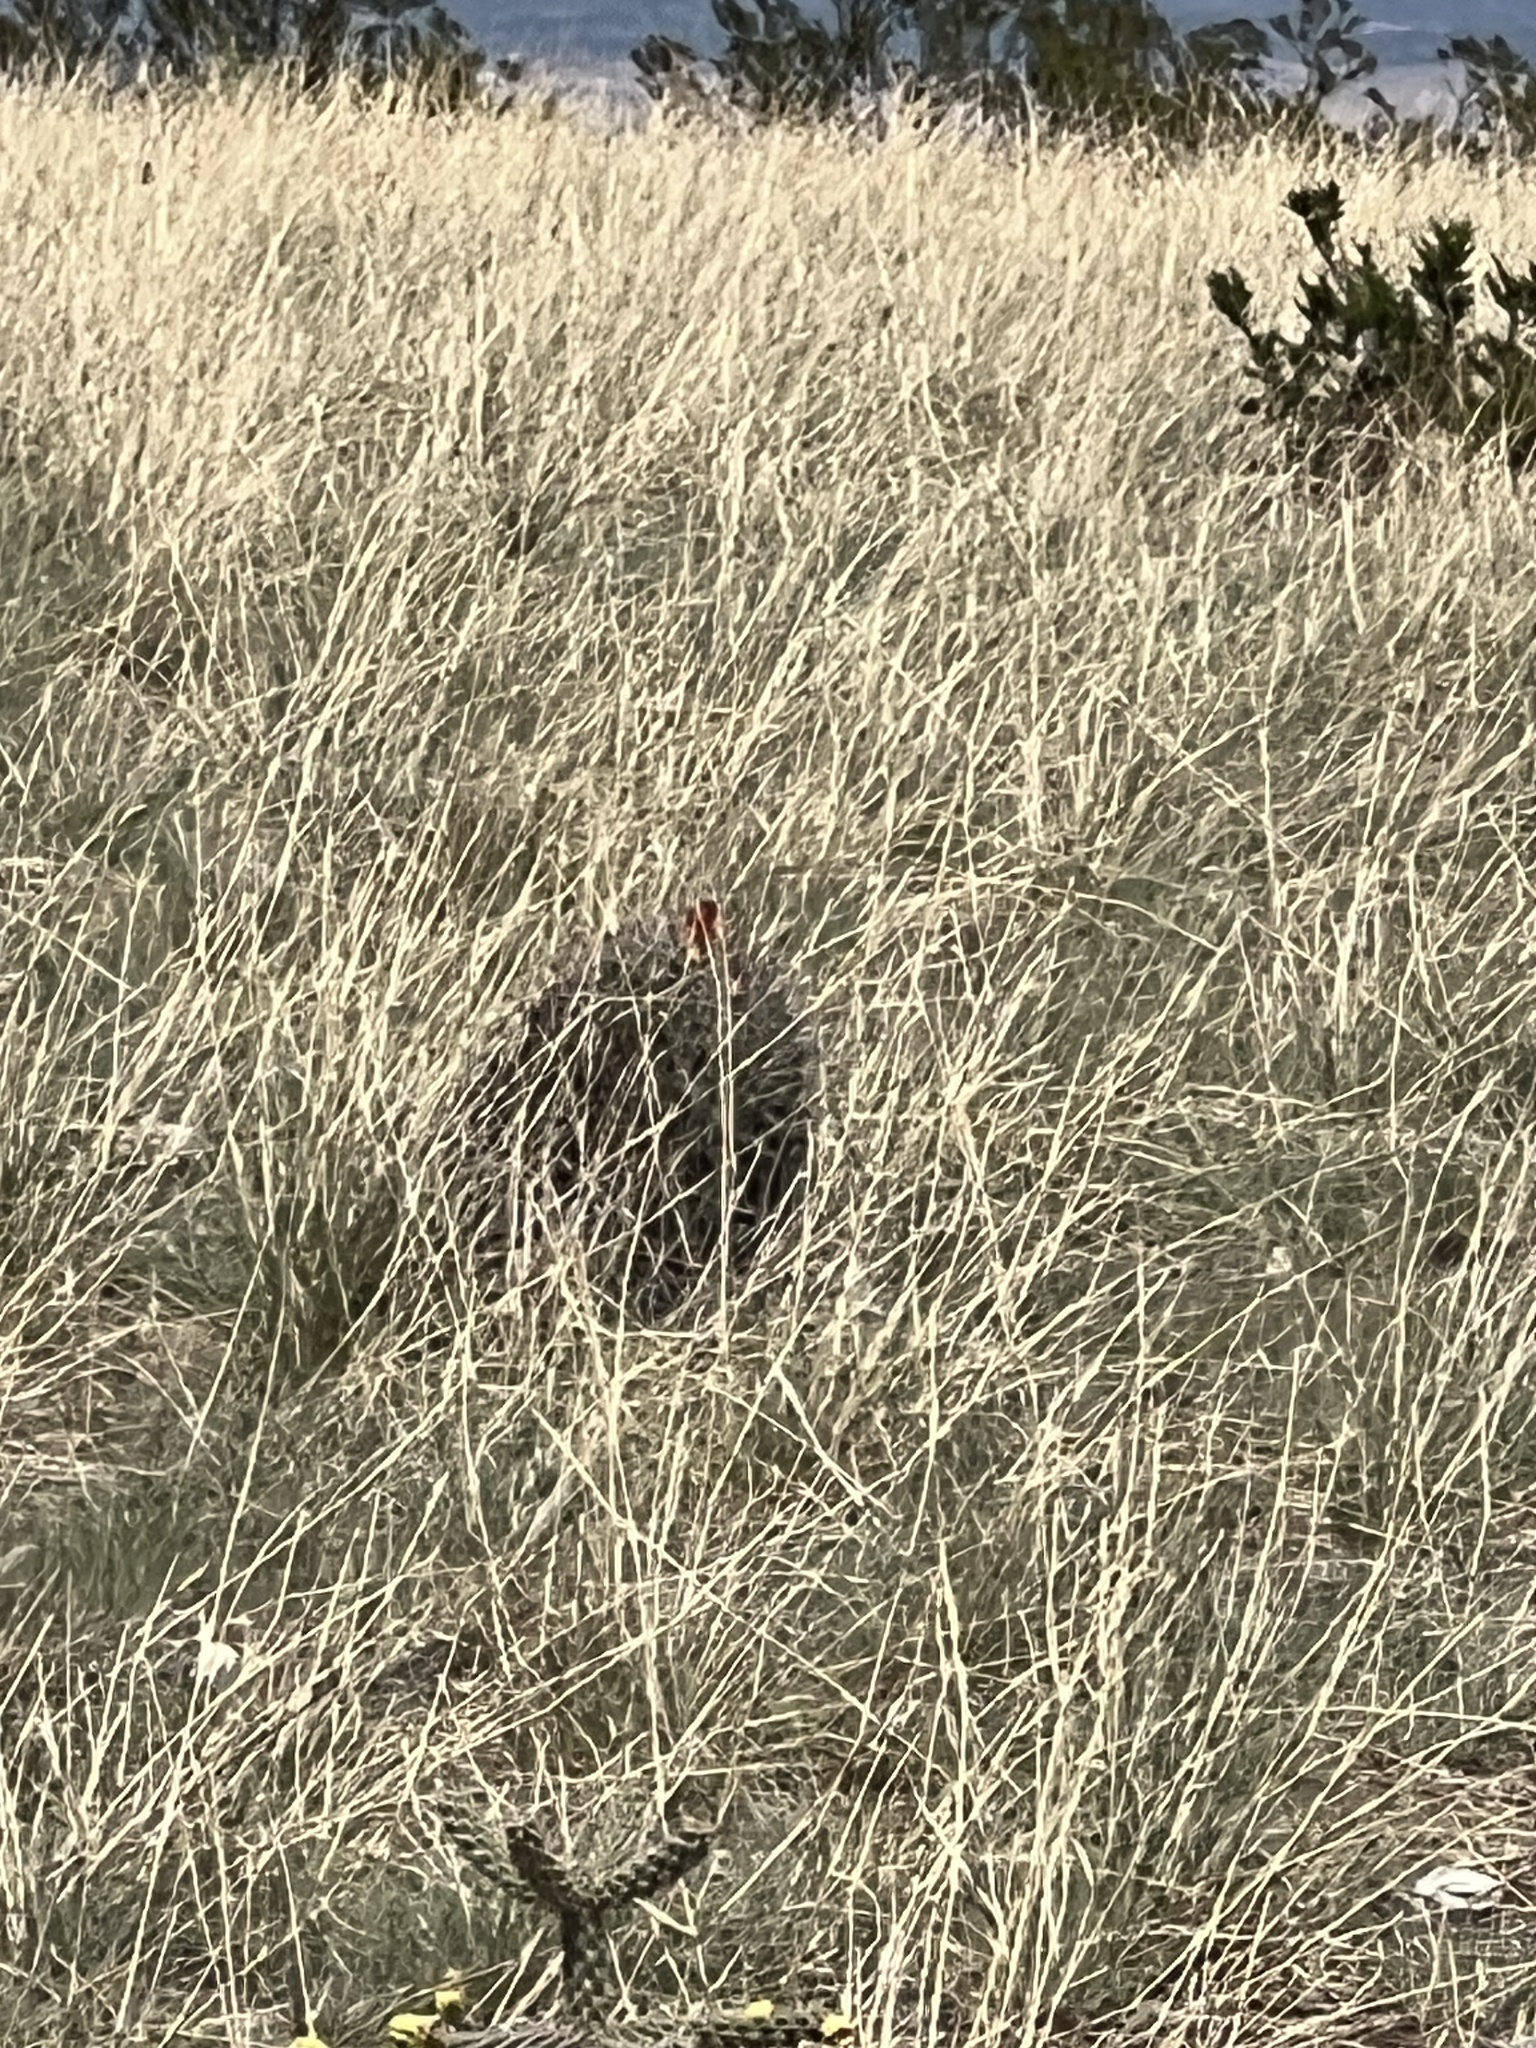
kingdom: Plantae
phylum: Tracheophyta
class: Magnoliopsida
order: Caryophyllales
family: Cactaceae
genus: Ferocactus
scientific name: Ferocactus wislizeni
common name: Candy barrel cactus
